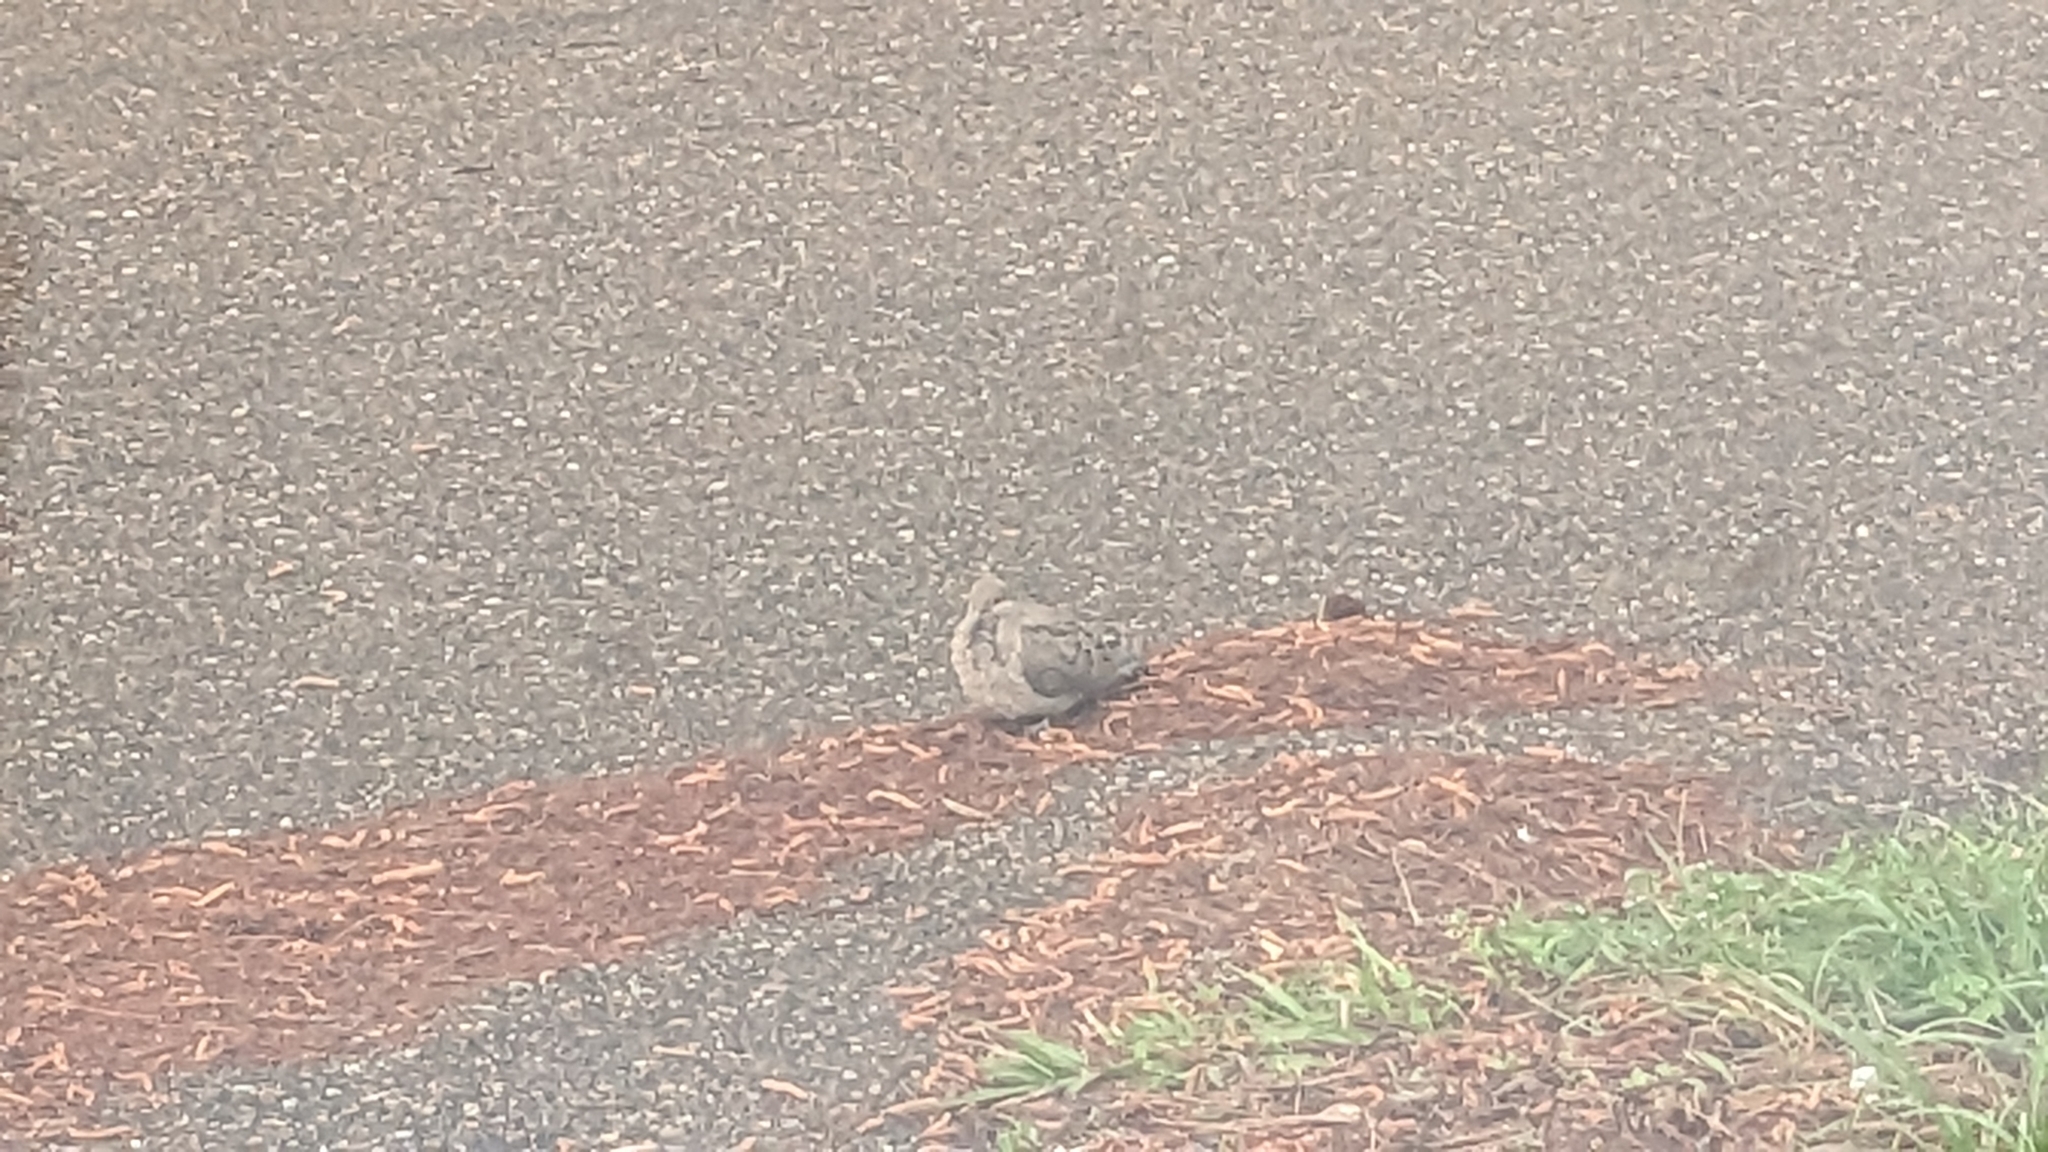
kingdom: Animalia
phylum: Chordata
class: Aves
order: Columbiformes
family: Columbidae
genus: Zenaida
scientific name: Zenaida macroura
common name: Mourning dove
